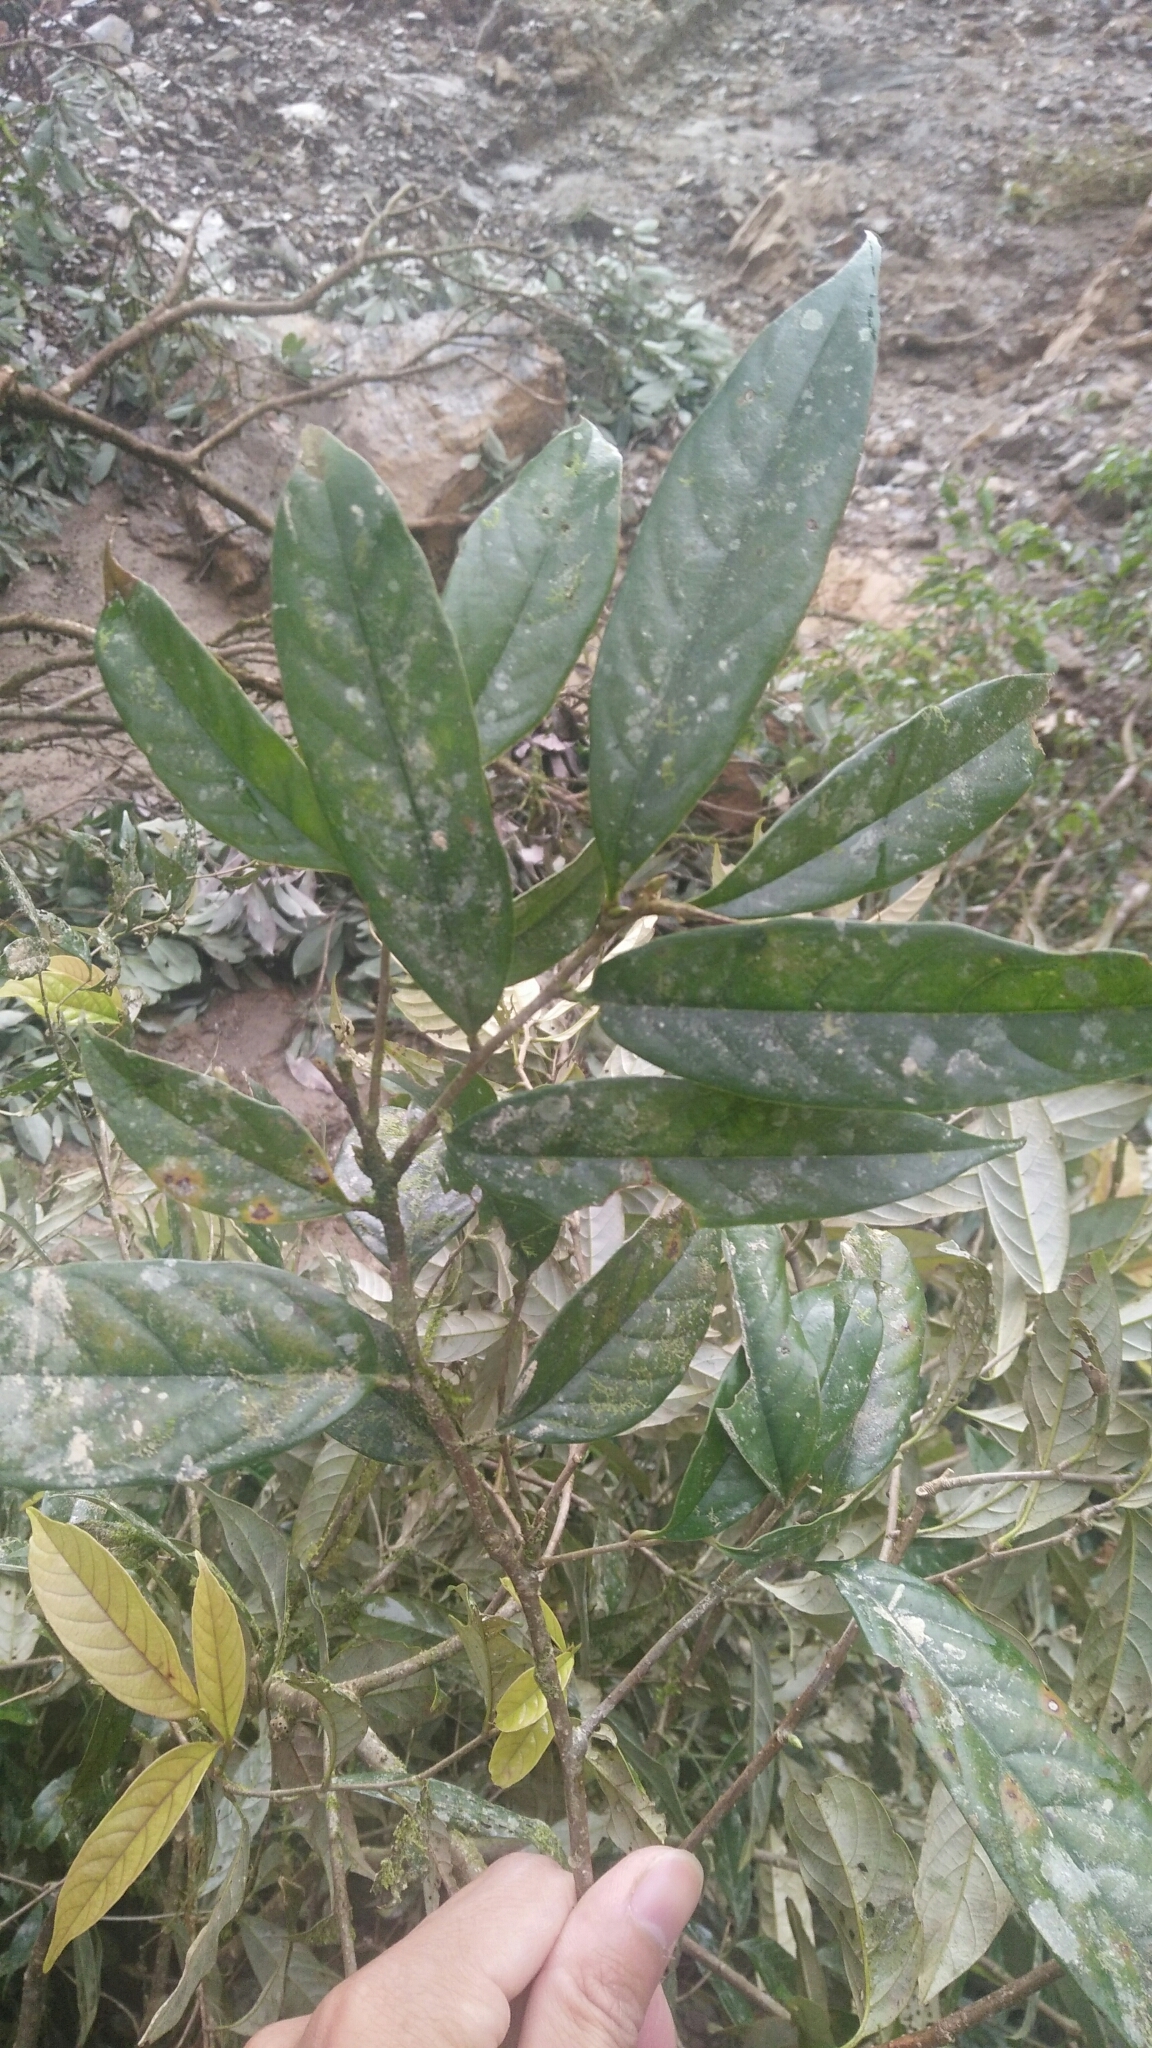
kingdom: Plantae
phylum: Tracheophyta
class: Magnoliopsida
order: Fagales
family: Fagaceae
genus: Castanopsis
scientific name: Castanopsis faberi
